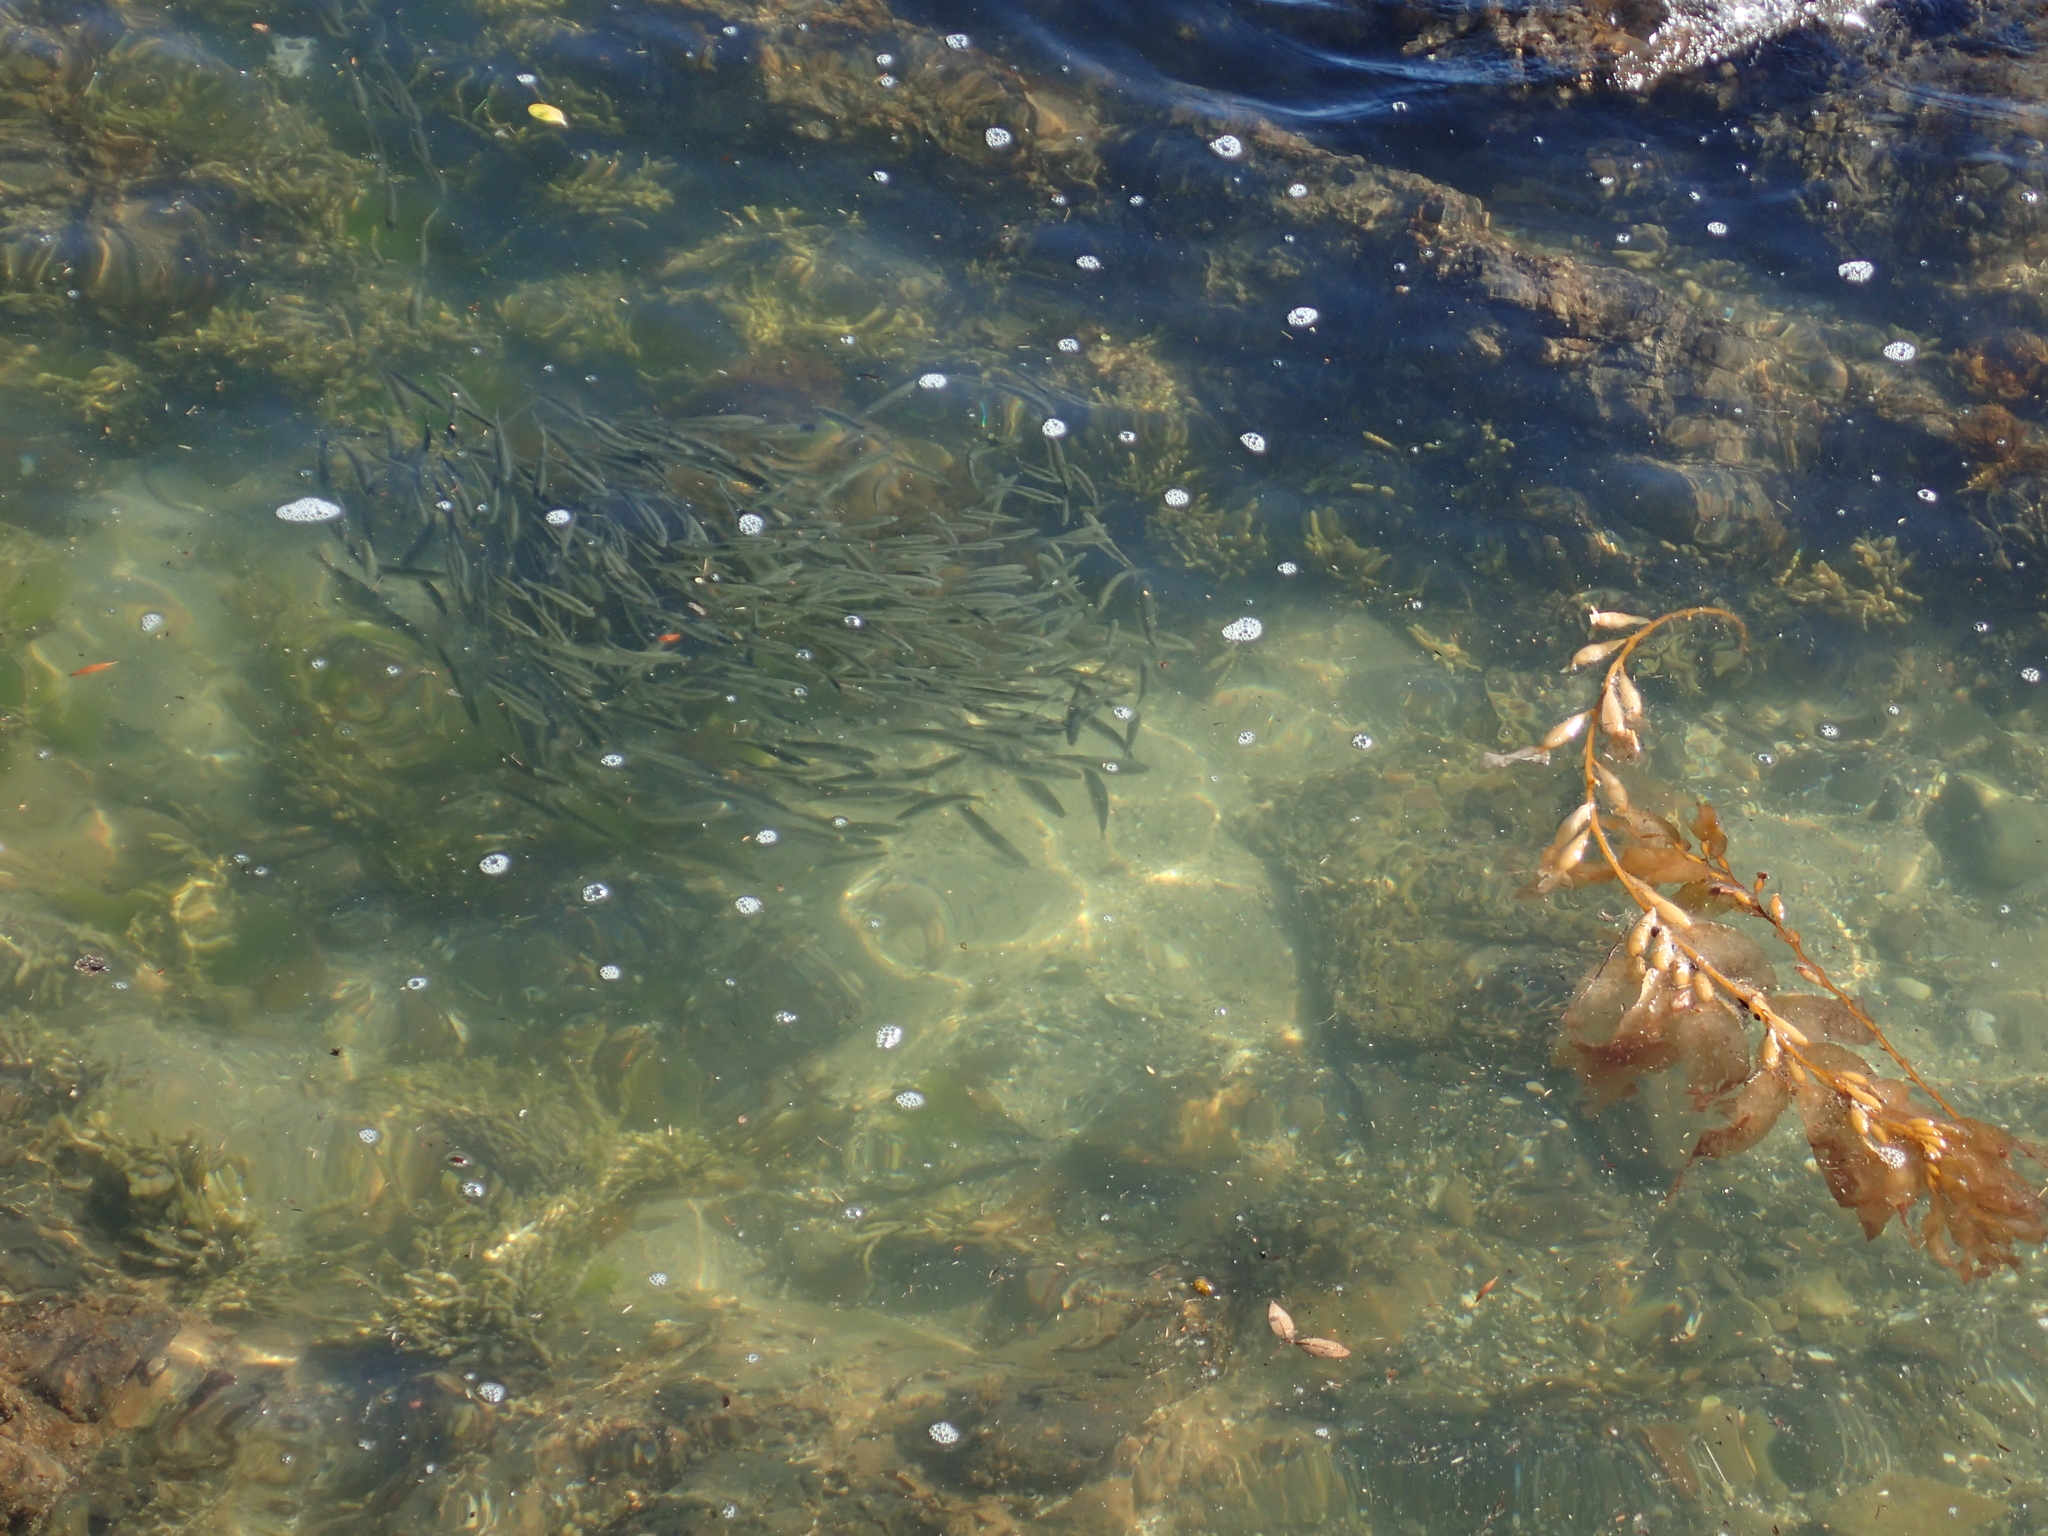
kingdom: Animalia
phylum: Chordata
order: Mugiliformes
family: Mugilidae
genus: Aldrichetta
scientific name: Aldrichetta forsteri
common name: Yellow-eye mullet
